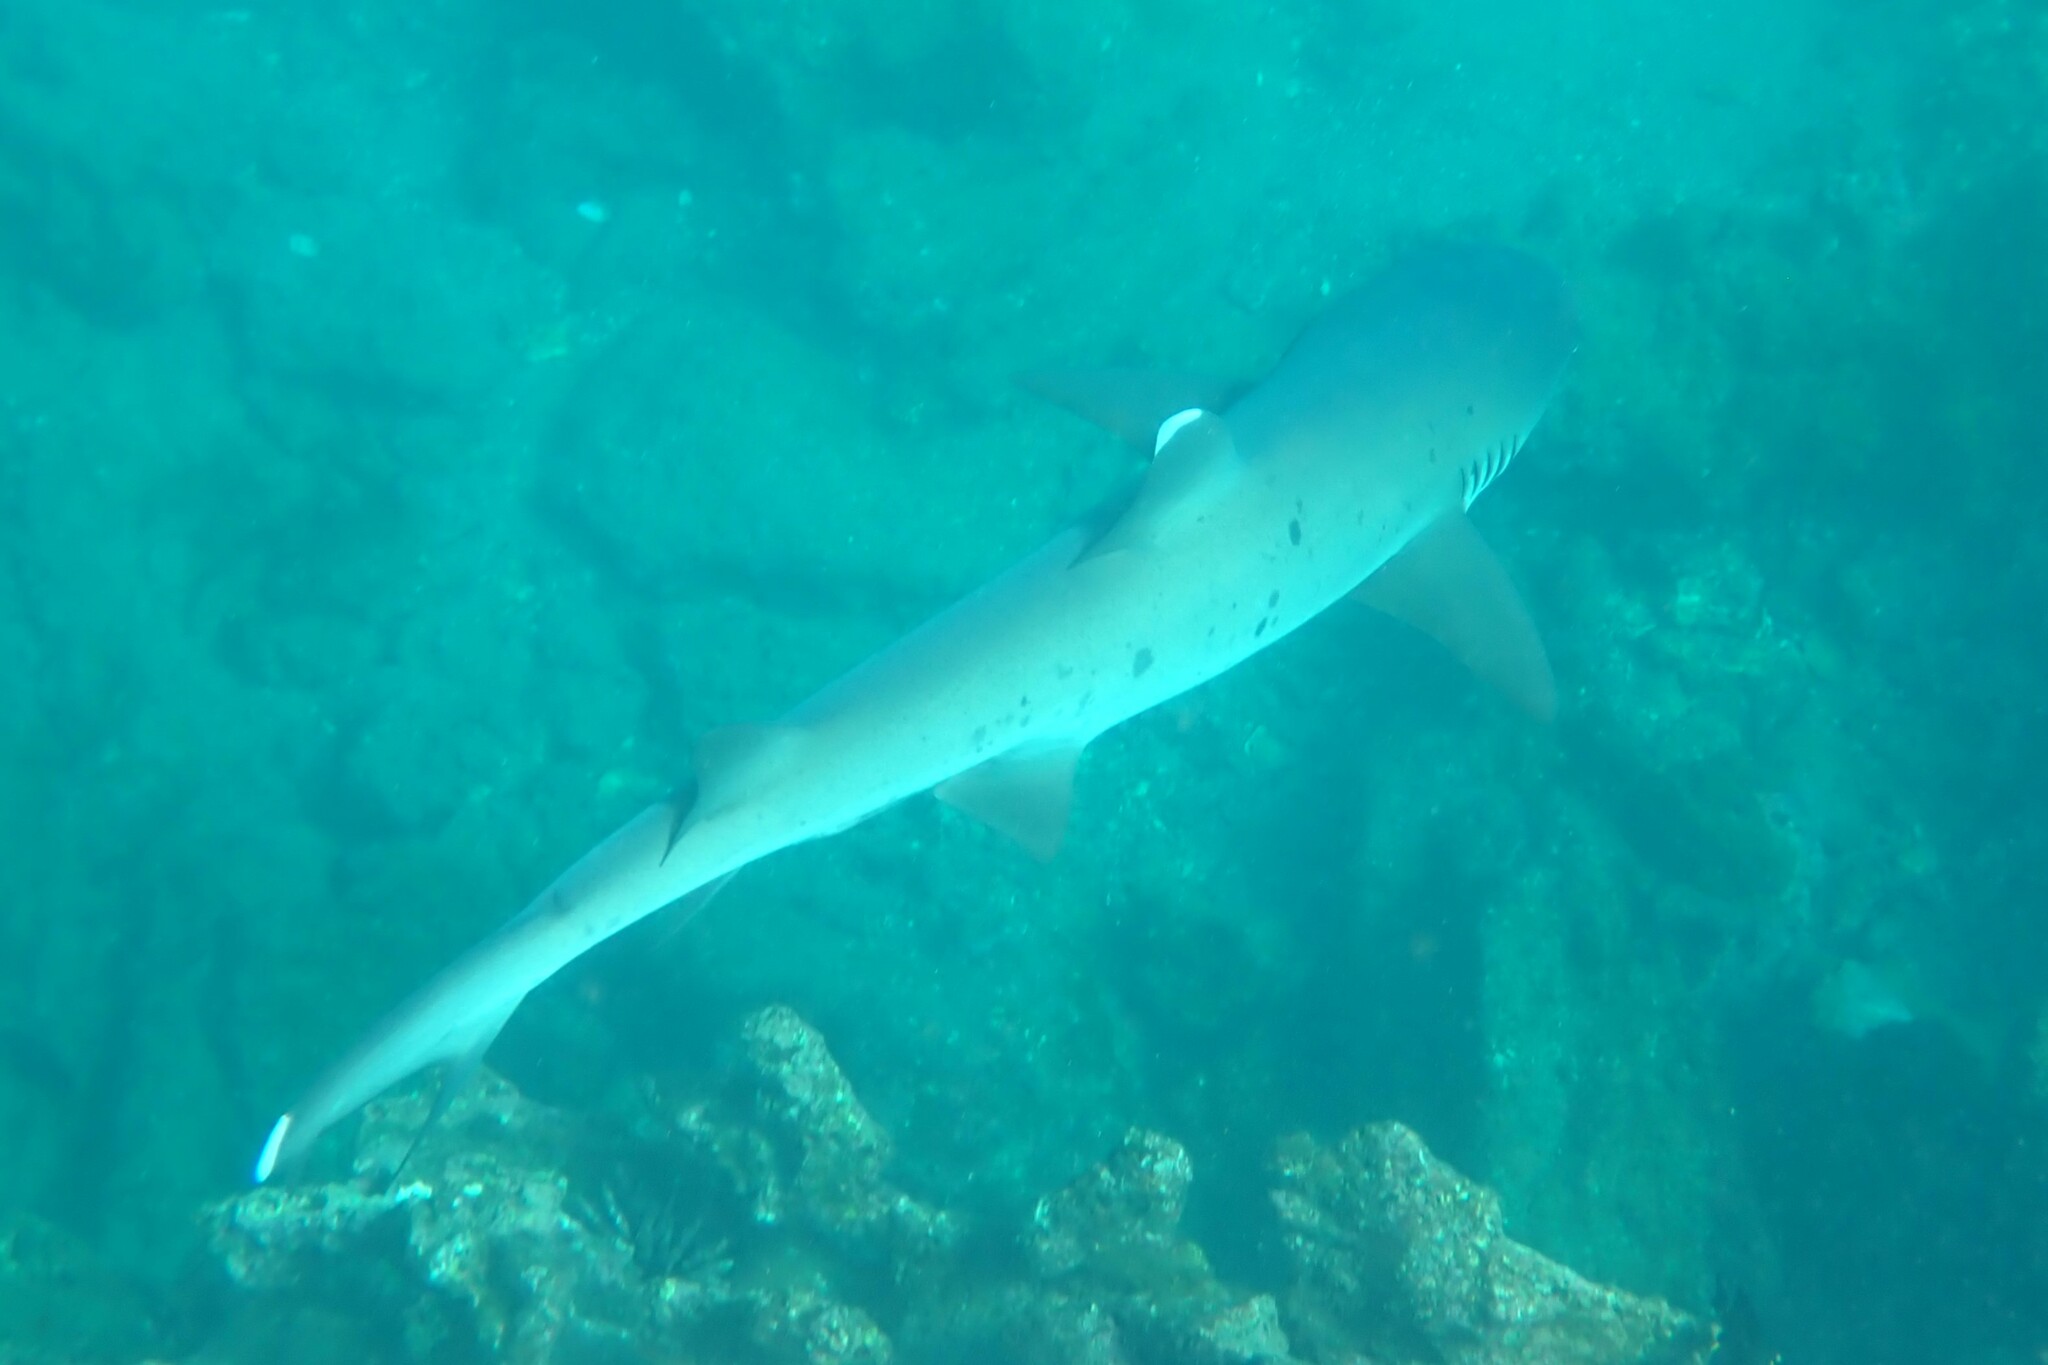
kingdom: Animalia
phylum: Chordata
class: Elasmobranchii
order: Carcharhiniformes
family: Carcharhinidae
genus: Triaenodon
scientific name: Triaenodon obesus
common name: Whitetip reef shark
